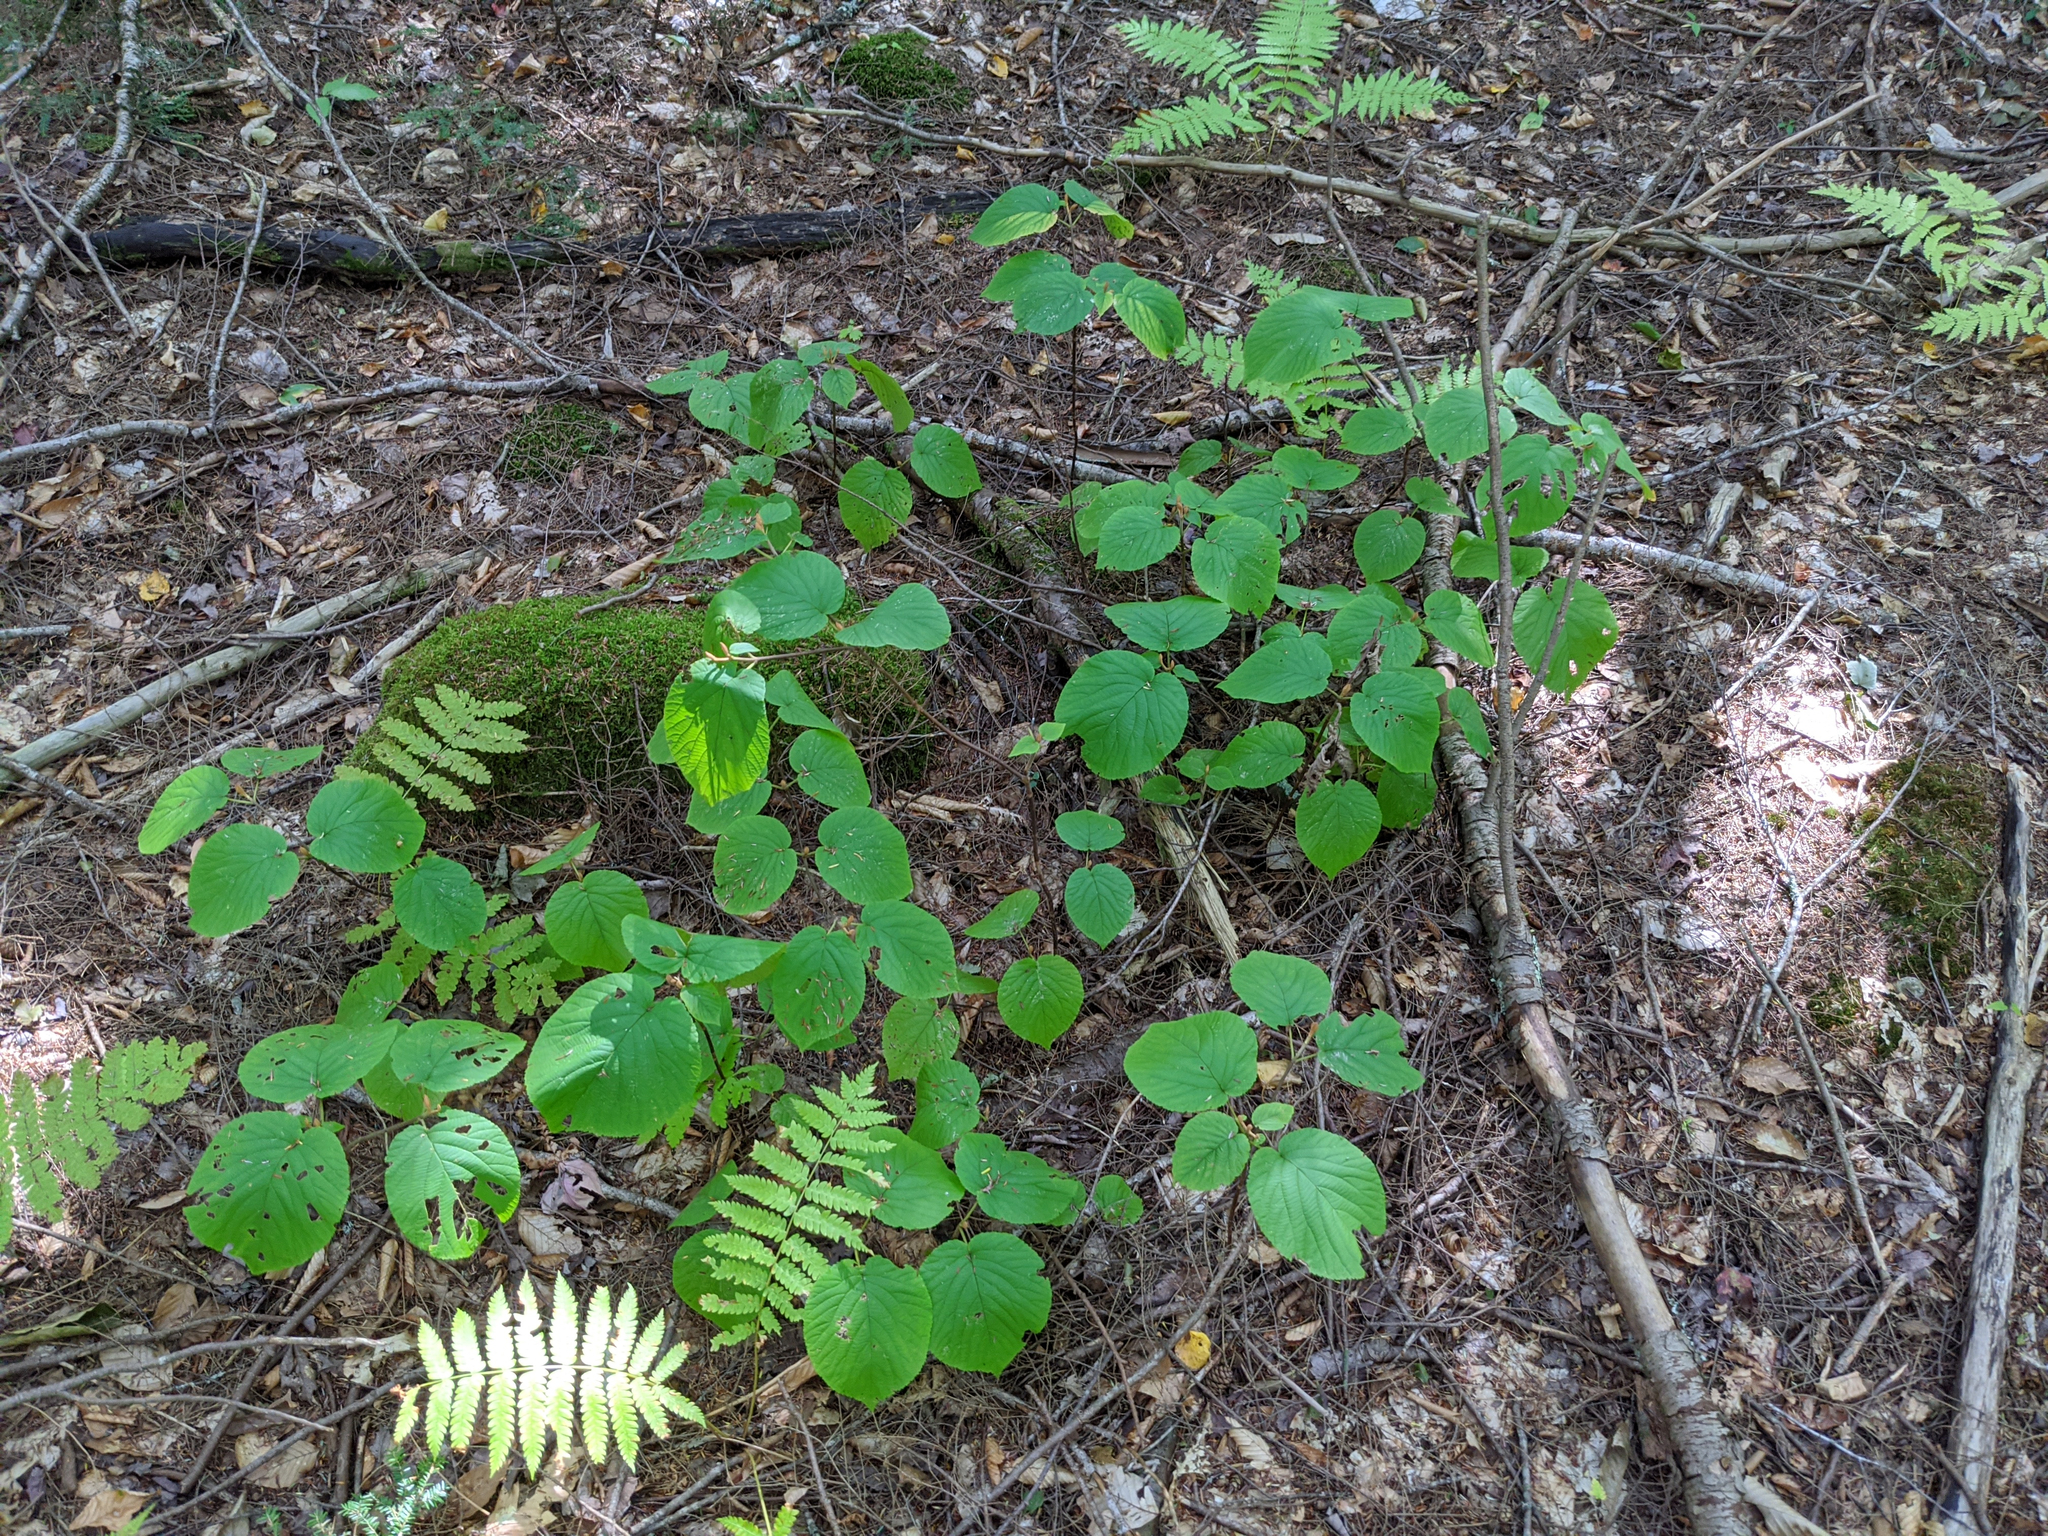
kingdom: Plantae
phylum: Tracheophyta
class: Magnoliopsida
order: Dipsacales
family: Viburnaceae
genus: Viburnum
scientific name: Viburnum lantanoides
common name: Hobblebush
